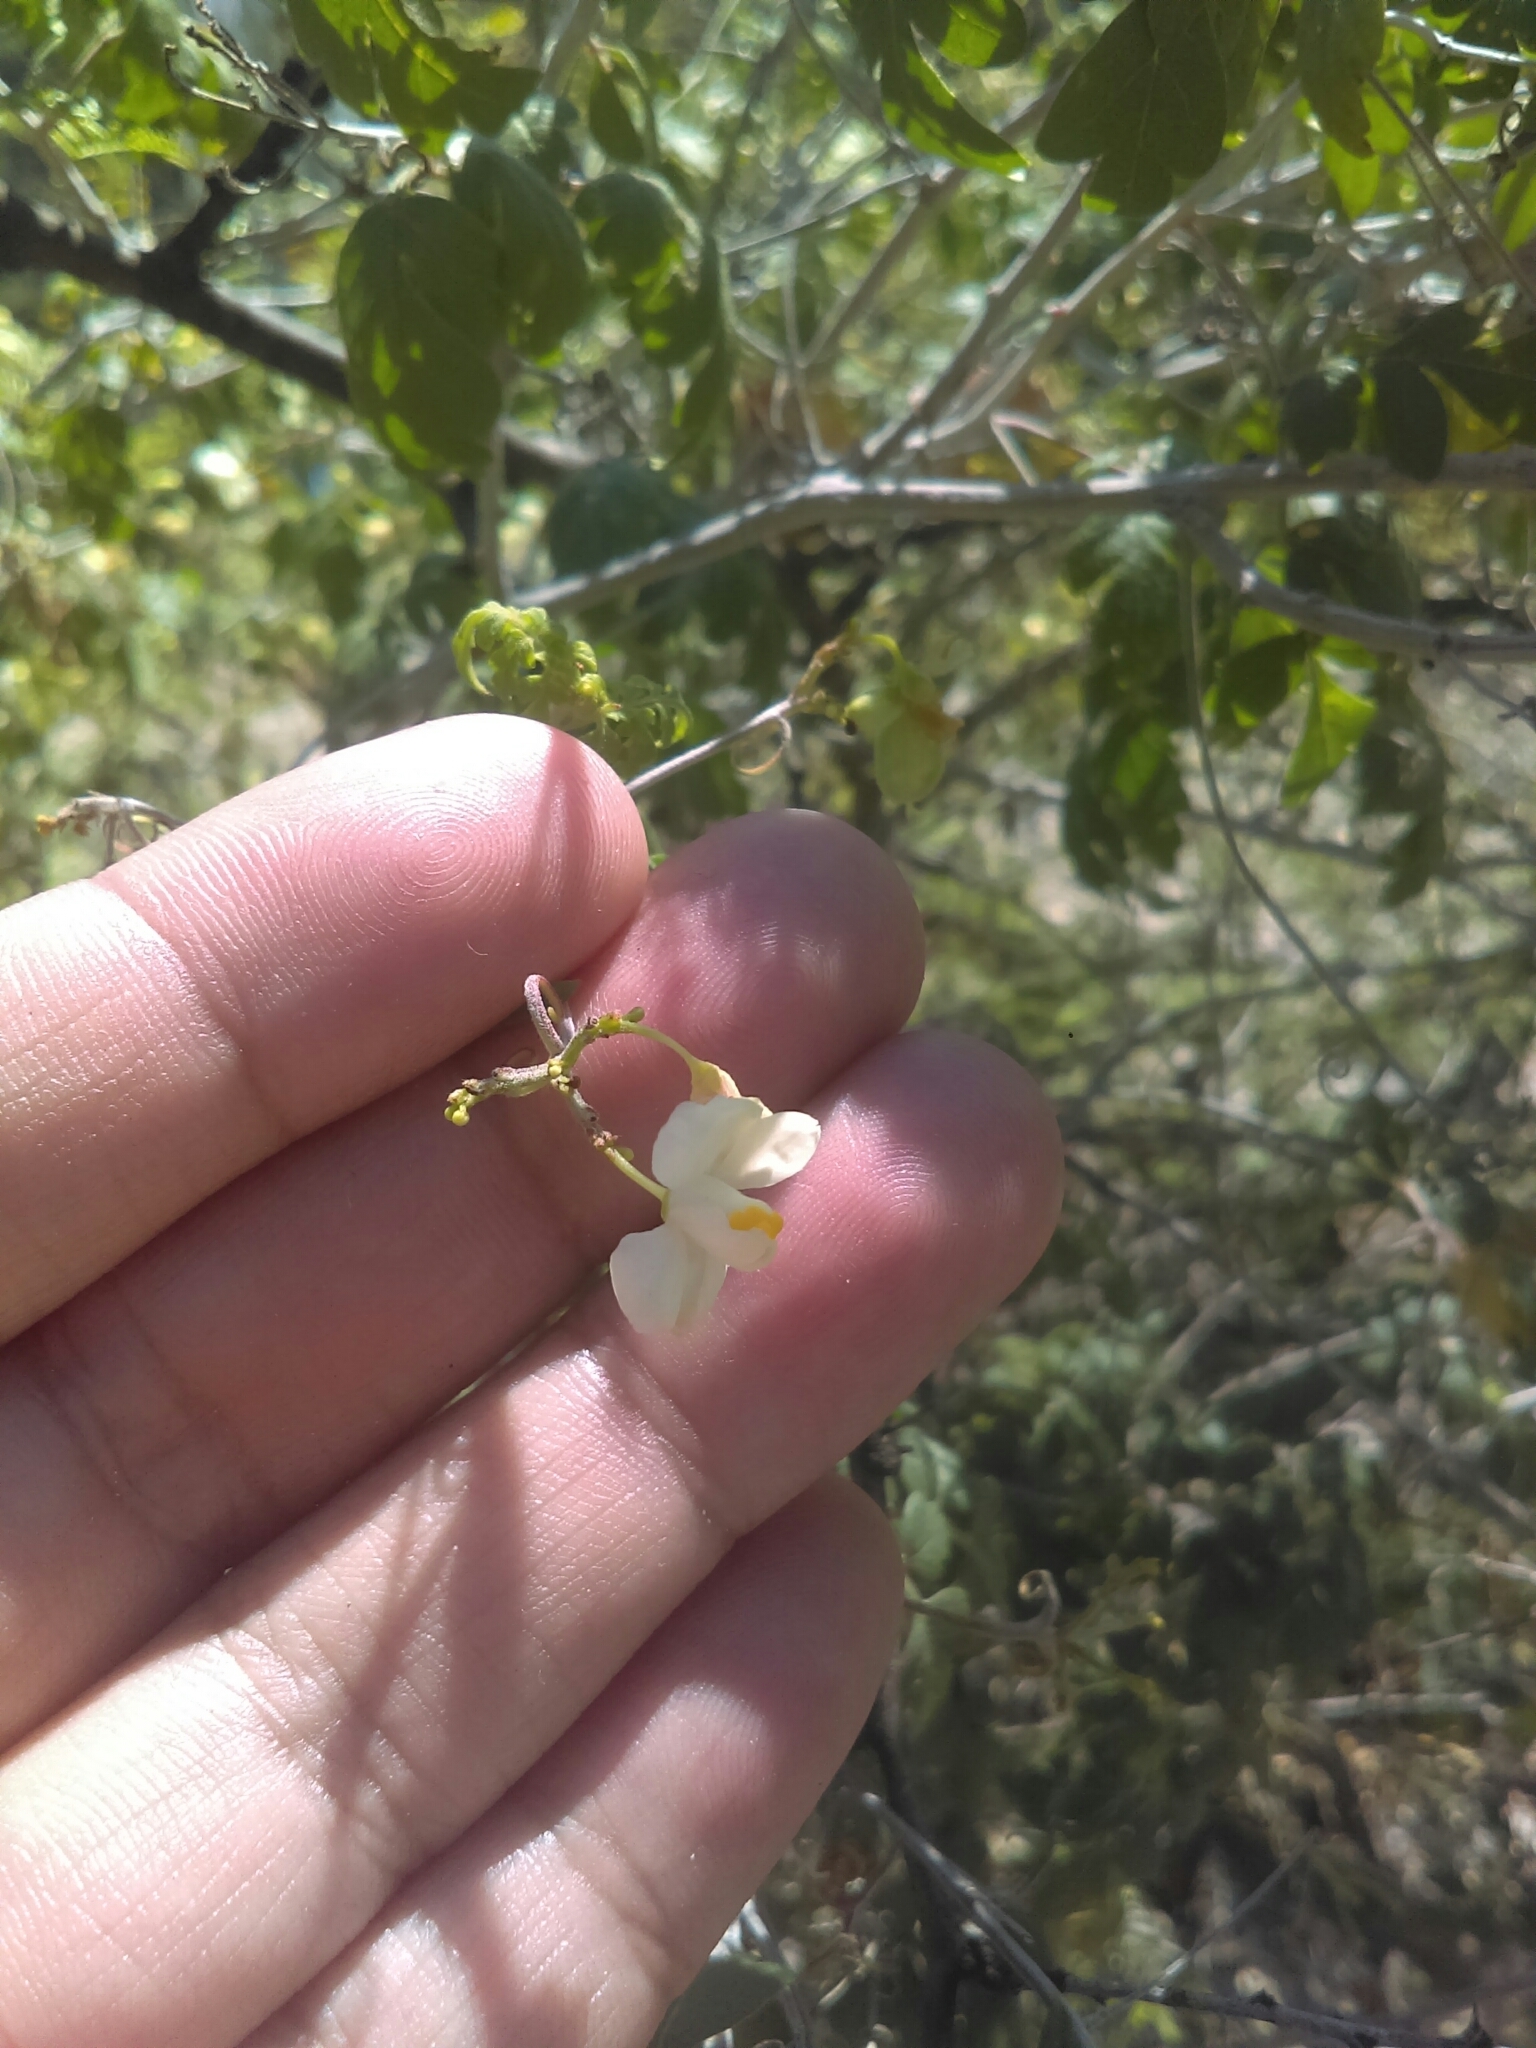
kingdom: Plantae
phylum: Tracheophyta
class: Magnoliopsida
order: Sapindales
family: Sapindaceae
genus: Cardiospermum
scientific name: Cardiospermum halicacabum
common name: Balloon vine
